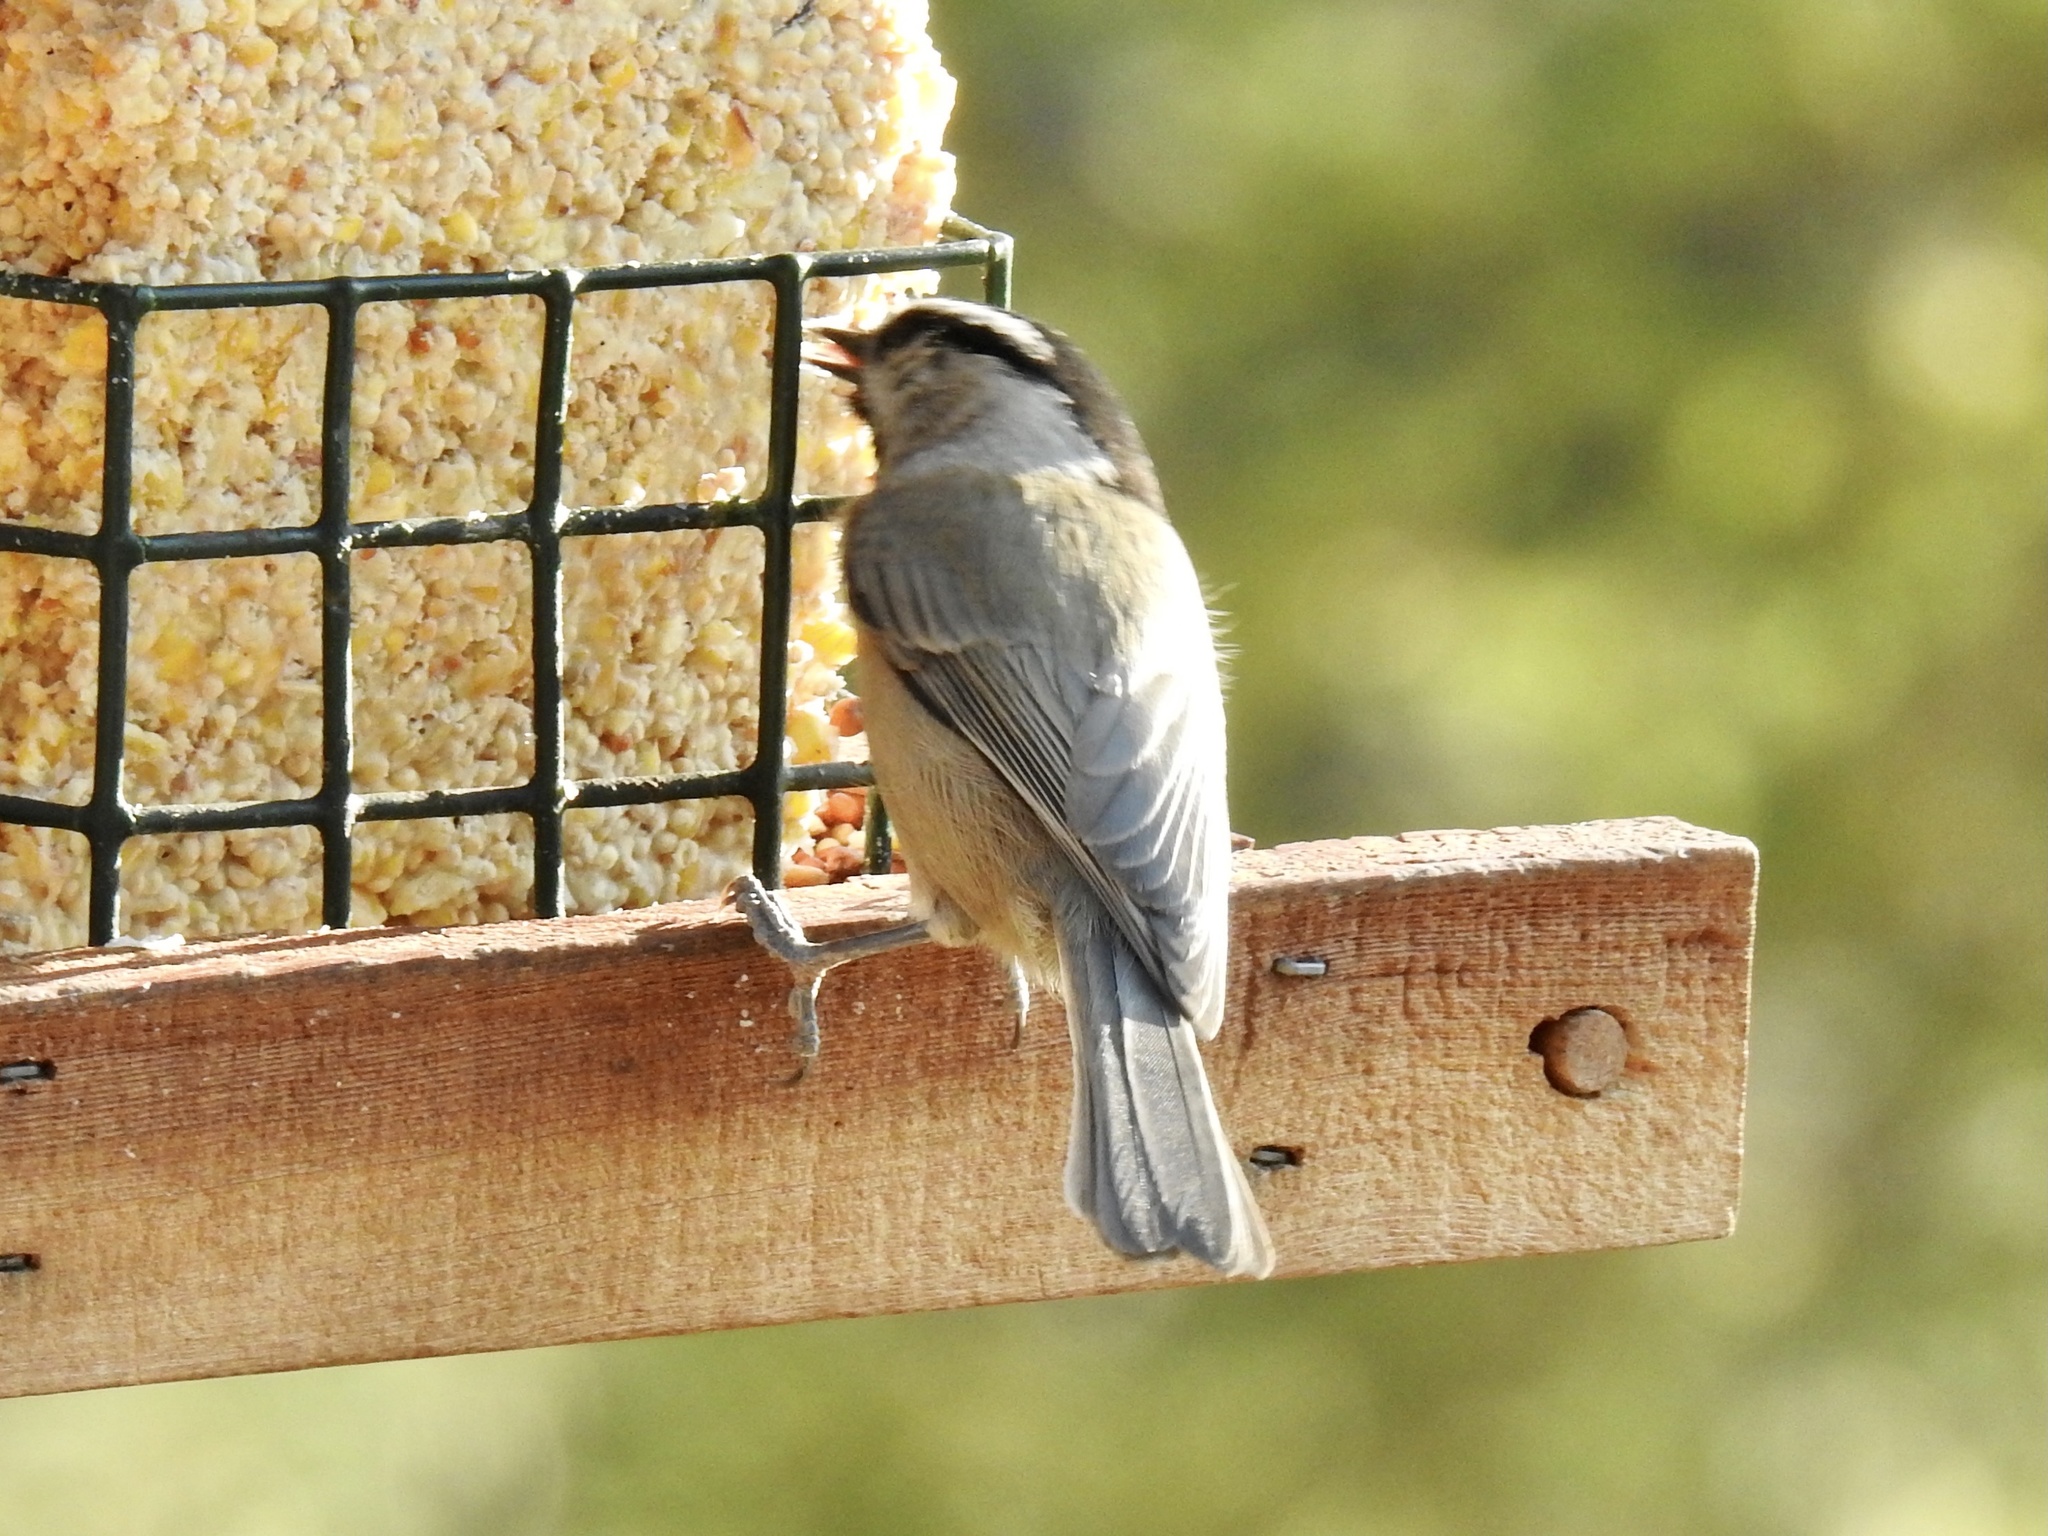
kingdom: Animalia
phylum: Chordata
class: Aves
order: Passeriformes
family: Paridae
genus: Poecile
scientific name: Poecile gambeli
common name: Mountain chickadee
